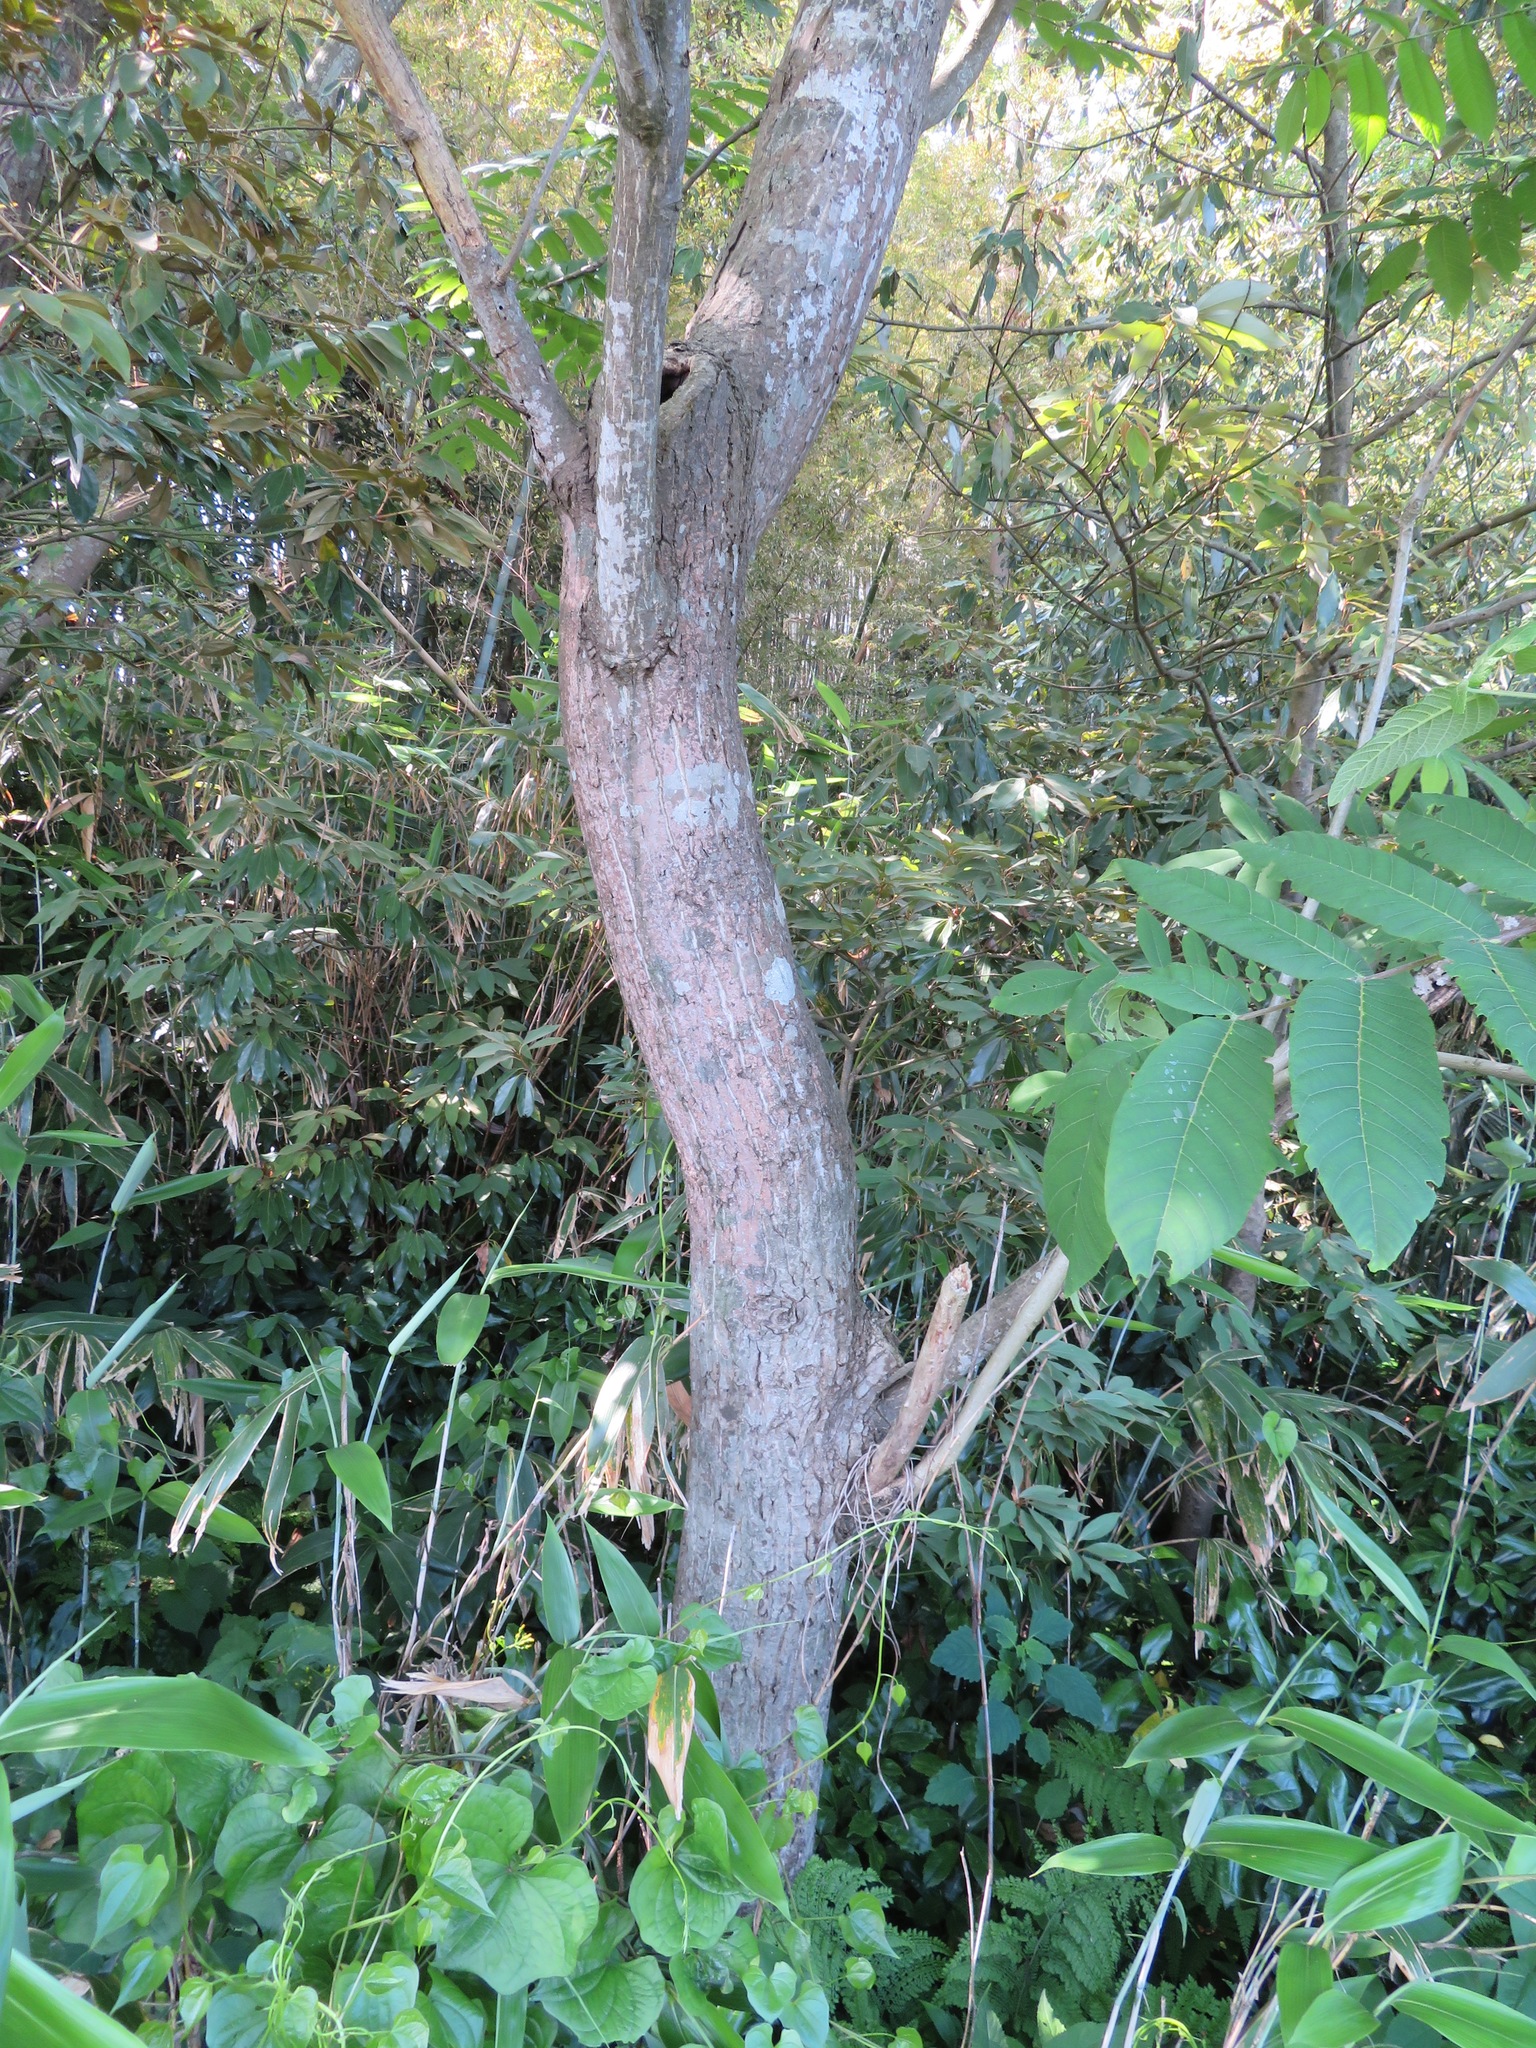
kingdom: Plantae
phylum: Tracheophyta
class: Magnoliopsida
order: Fagales
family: Juglandaceae
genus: Juglans
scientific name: Juglans ailantifolia
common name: Japanese walnut
